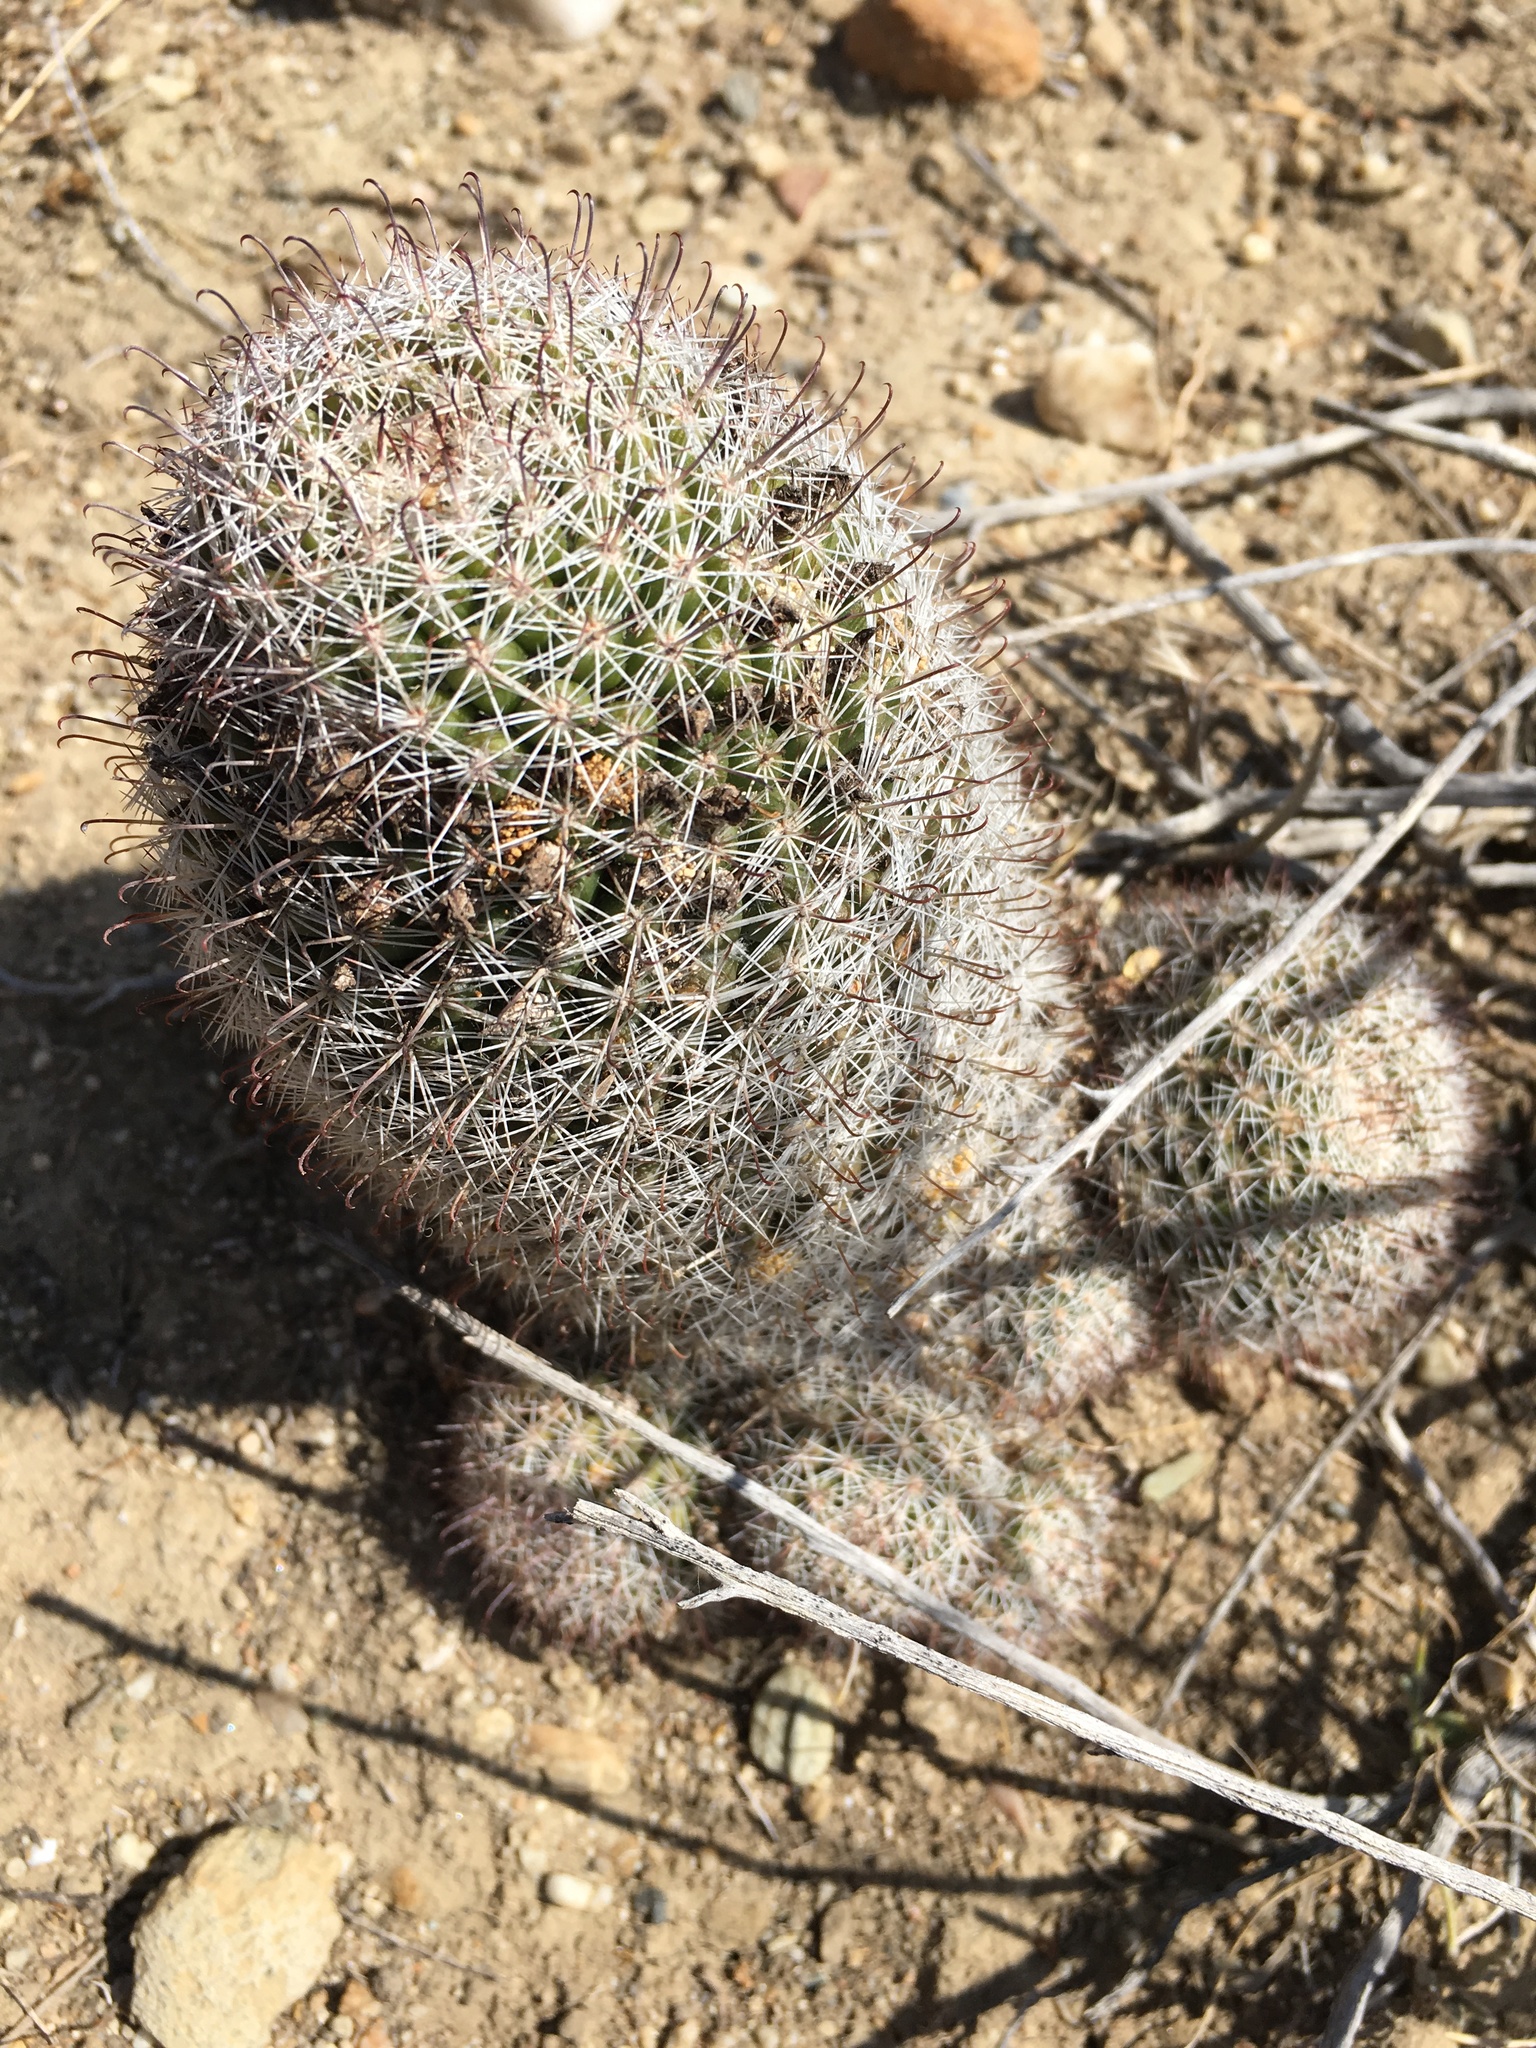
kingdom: Plantae
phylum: Tracheophyta
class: Magnoliopsida
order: Caryophyllales
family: Cactaceae
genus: Cochemiea
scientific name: Cochemiea dioica
